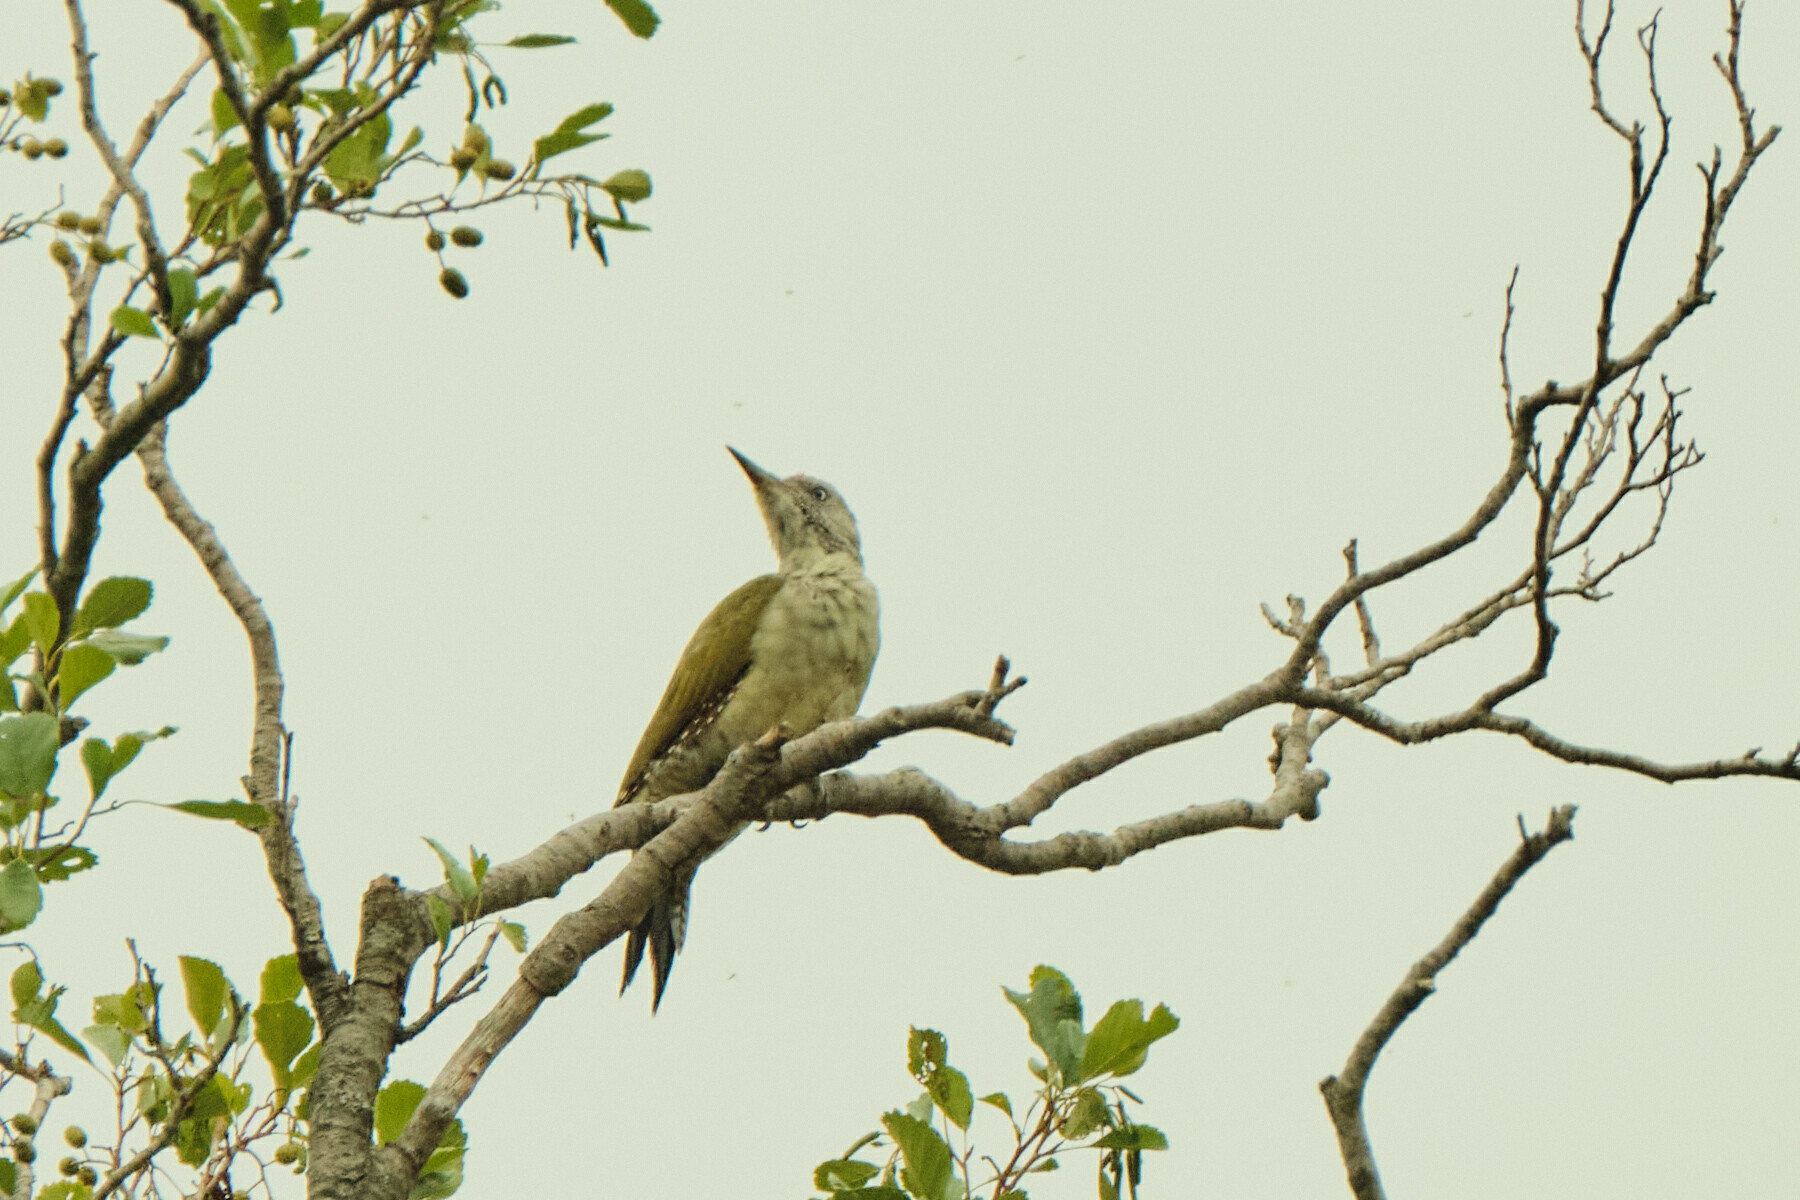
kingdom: Animalia
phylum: Chordata
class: Aves
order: Piciformes
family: Picidae
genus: Picus
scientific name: Picus viridis
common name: European green woodpecker
